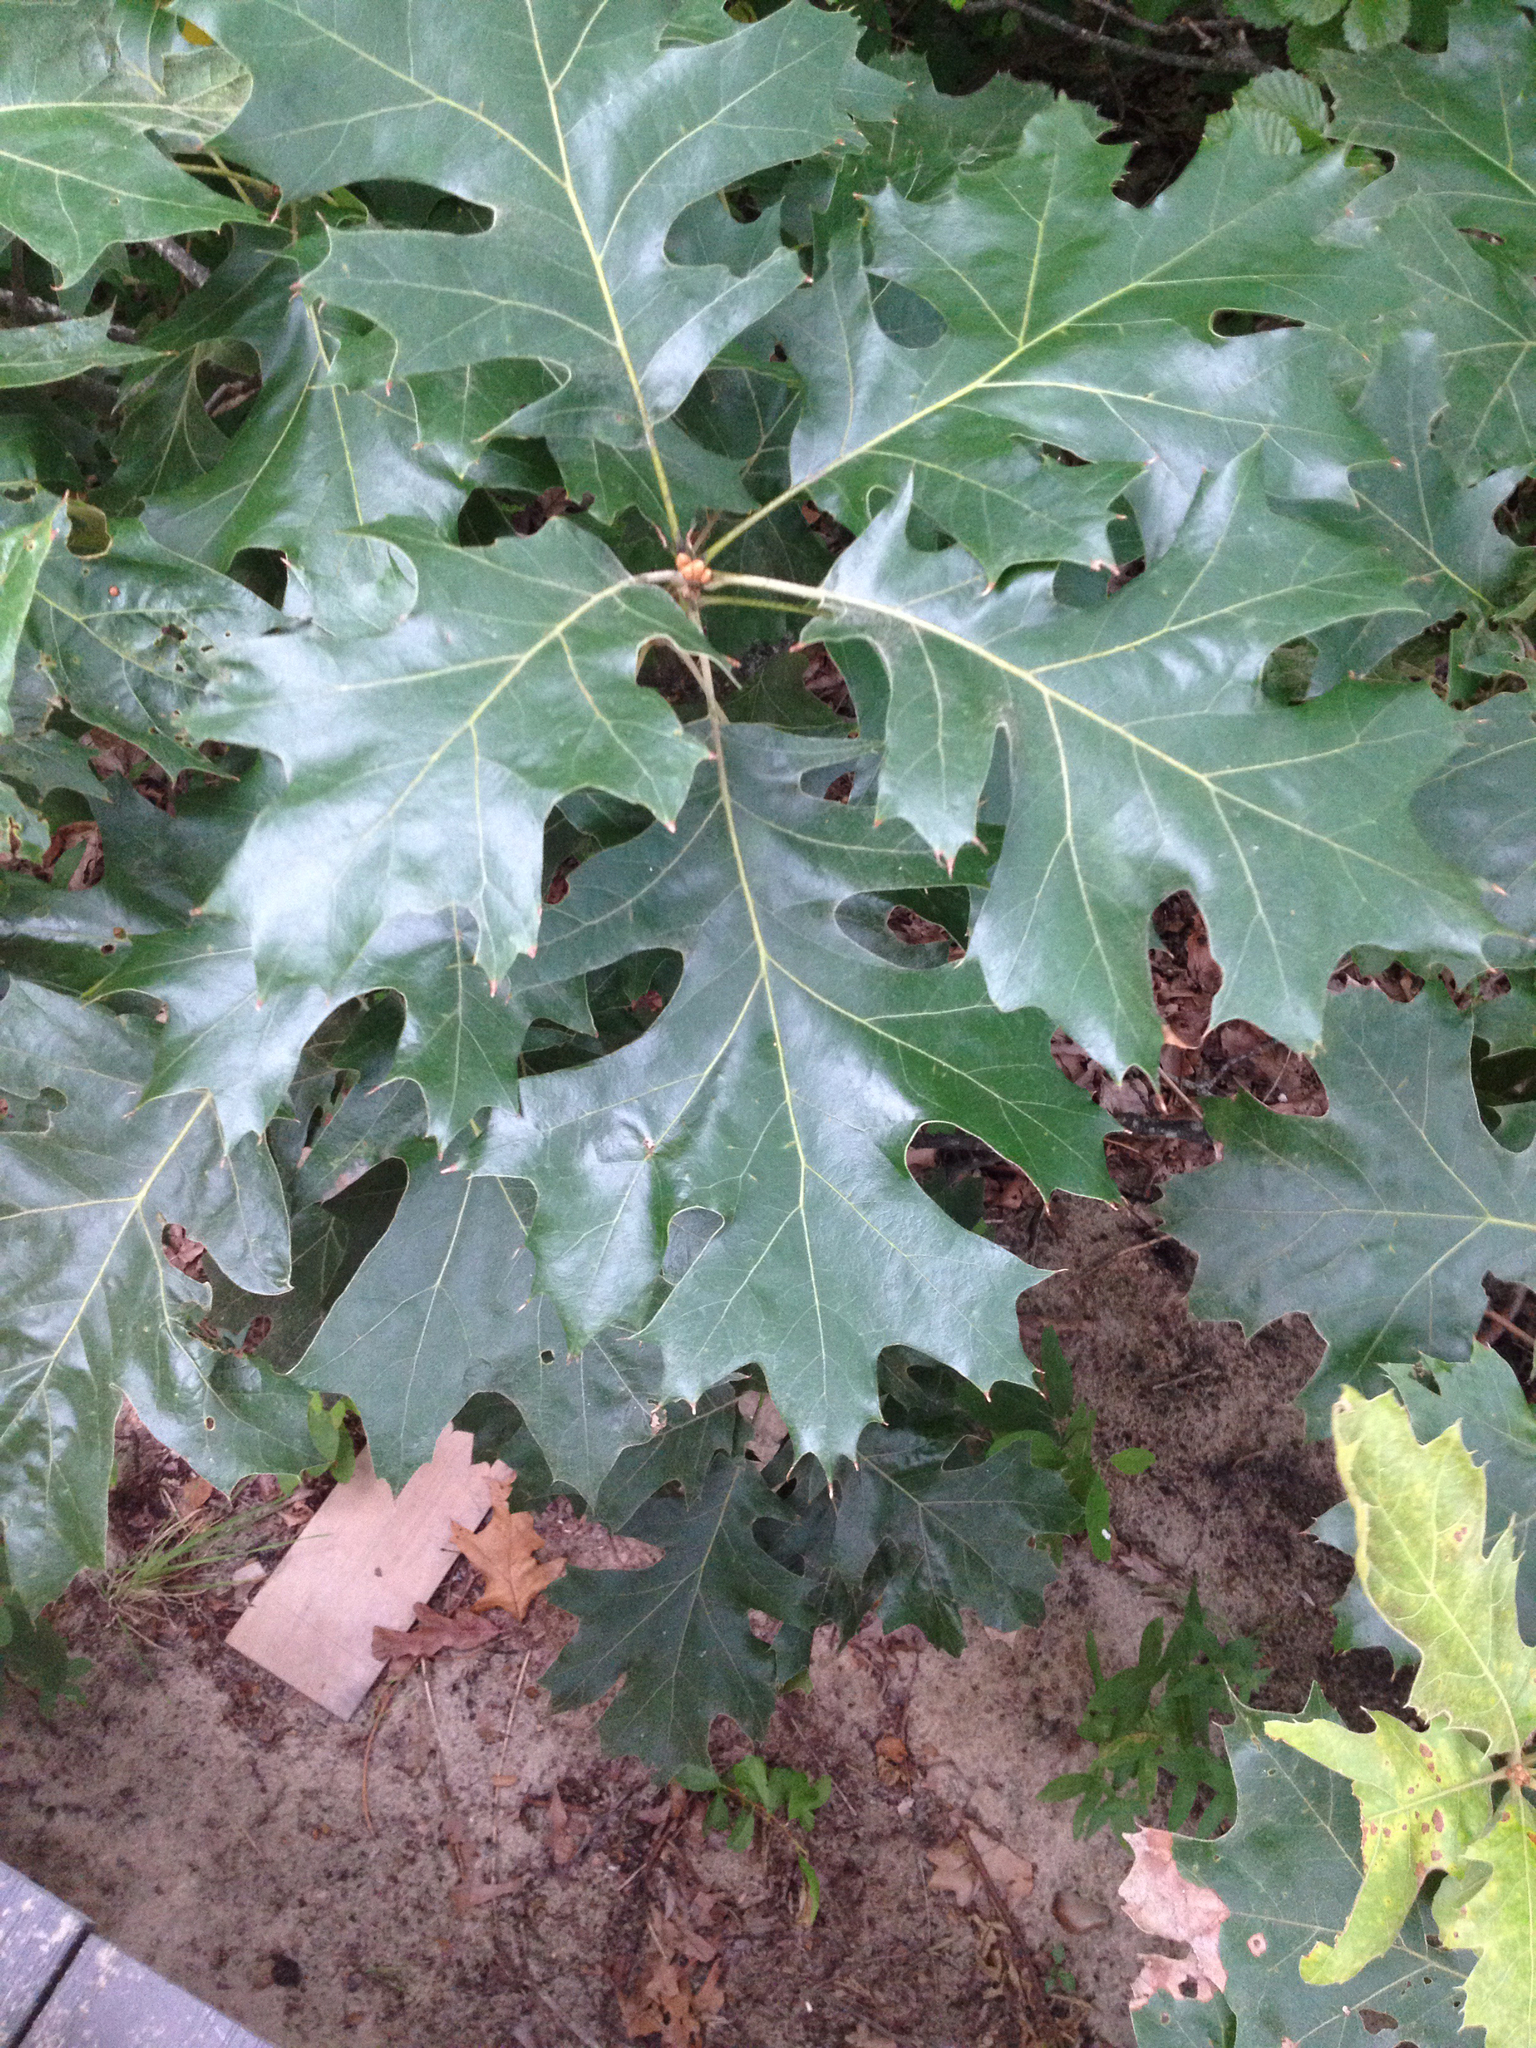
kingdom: Plantae
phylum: Tracheophyta
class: Magnoliopsida
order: Fagales
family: Fagaceae
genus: Quercus
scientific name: Quercus velutina
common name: Black oak
